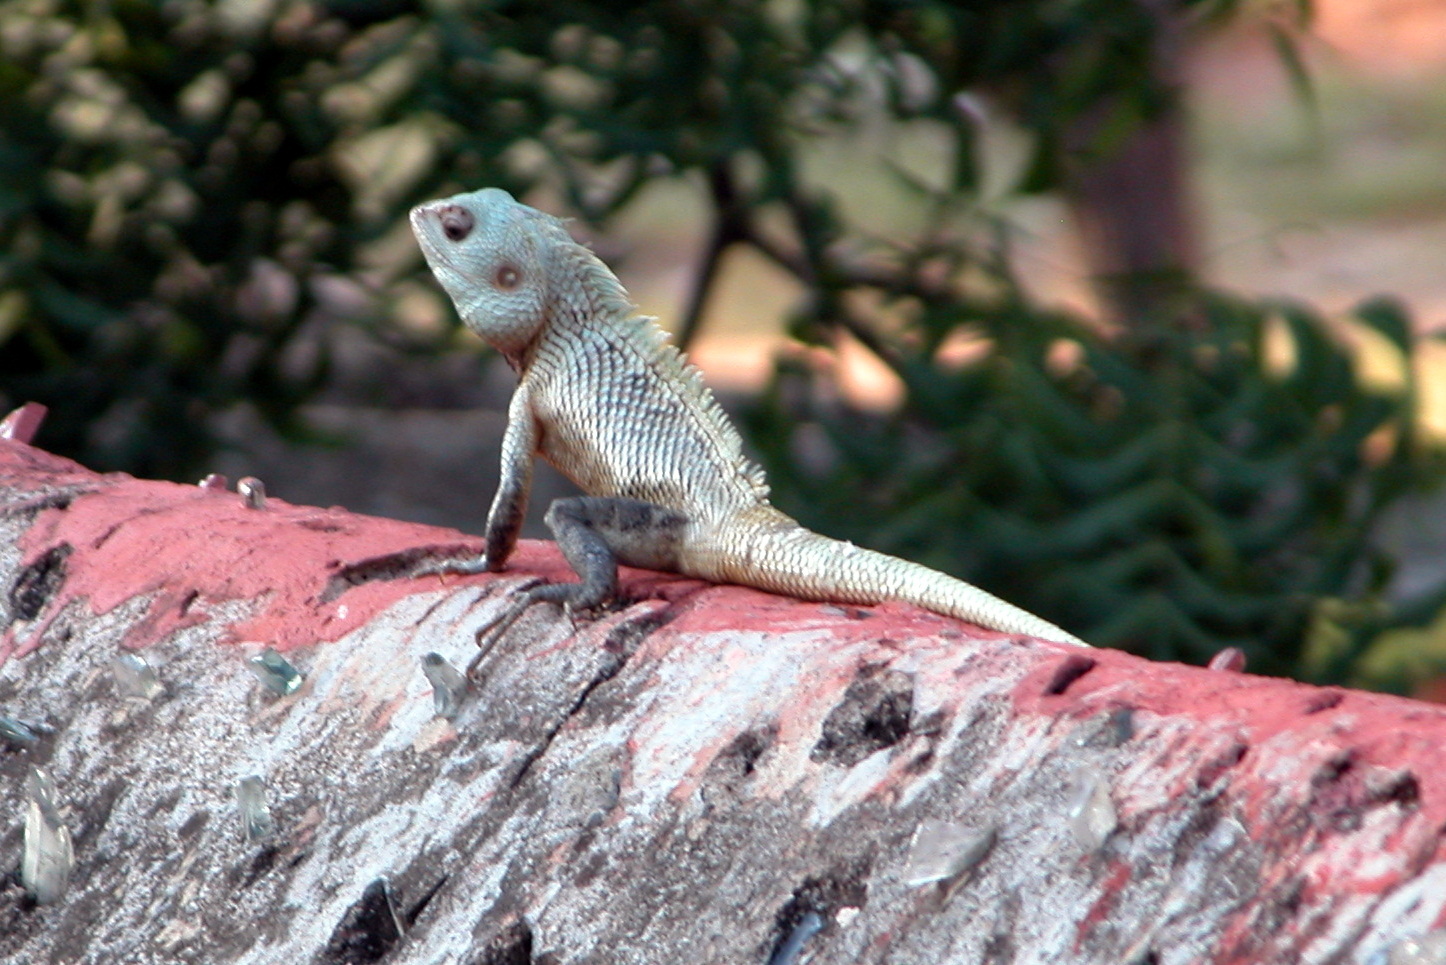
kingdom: Animalia
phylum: Chordata
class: Squamata
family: Agamidae
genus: Calotes
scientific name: Calotes versicolor
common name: Oriental garden lizard
